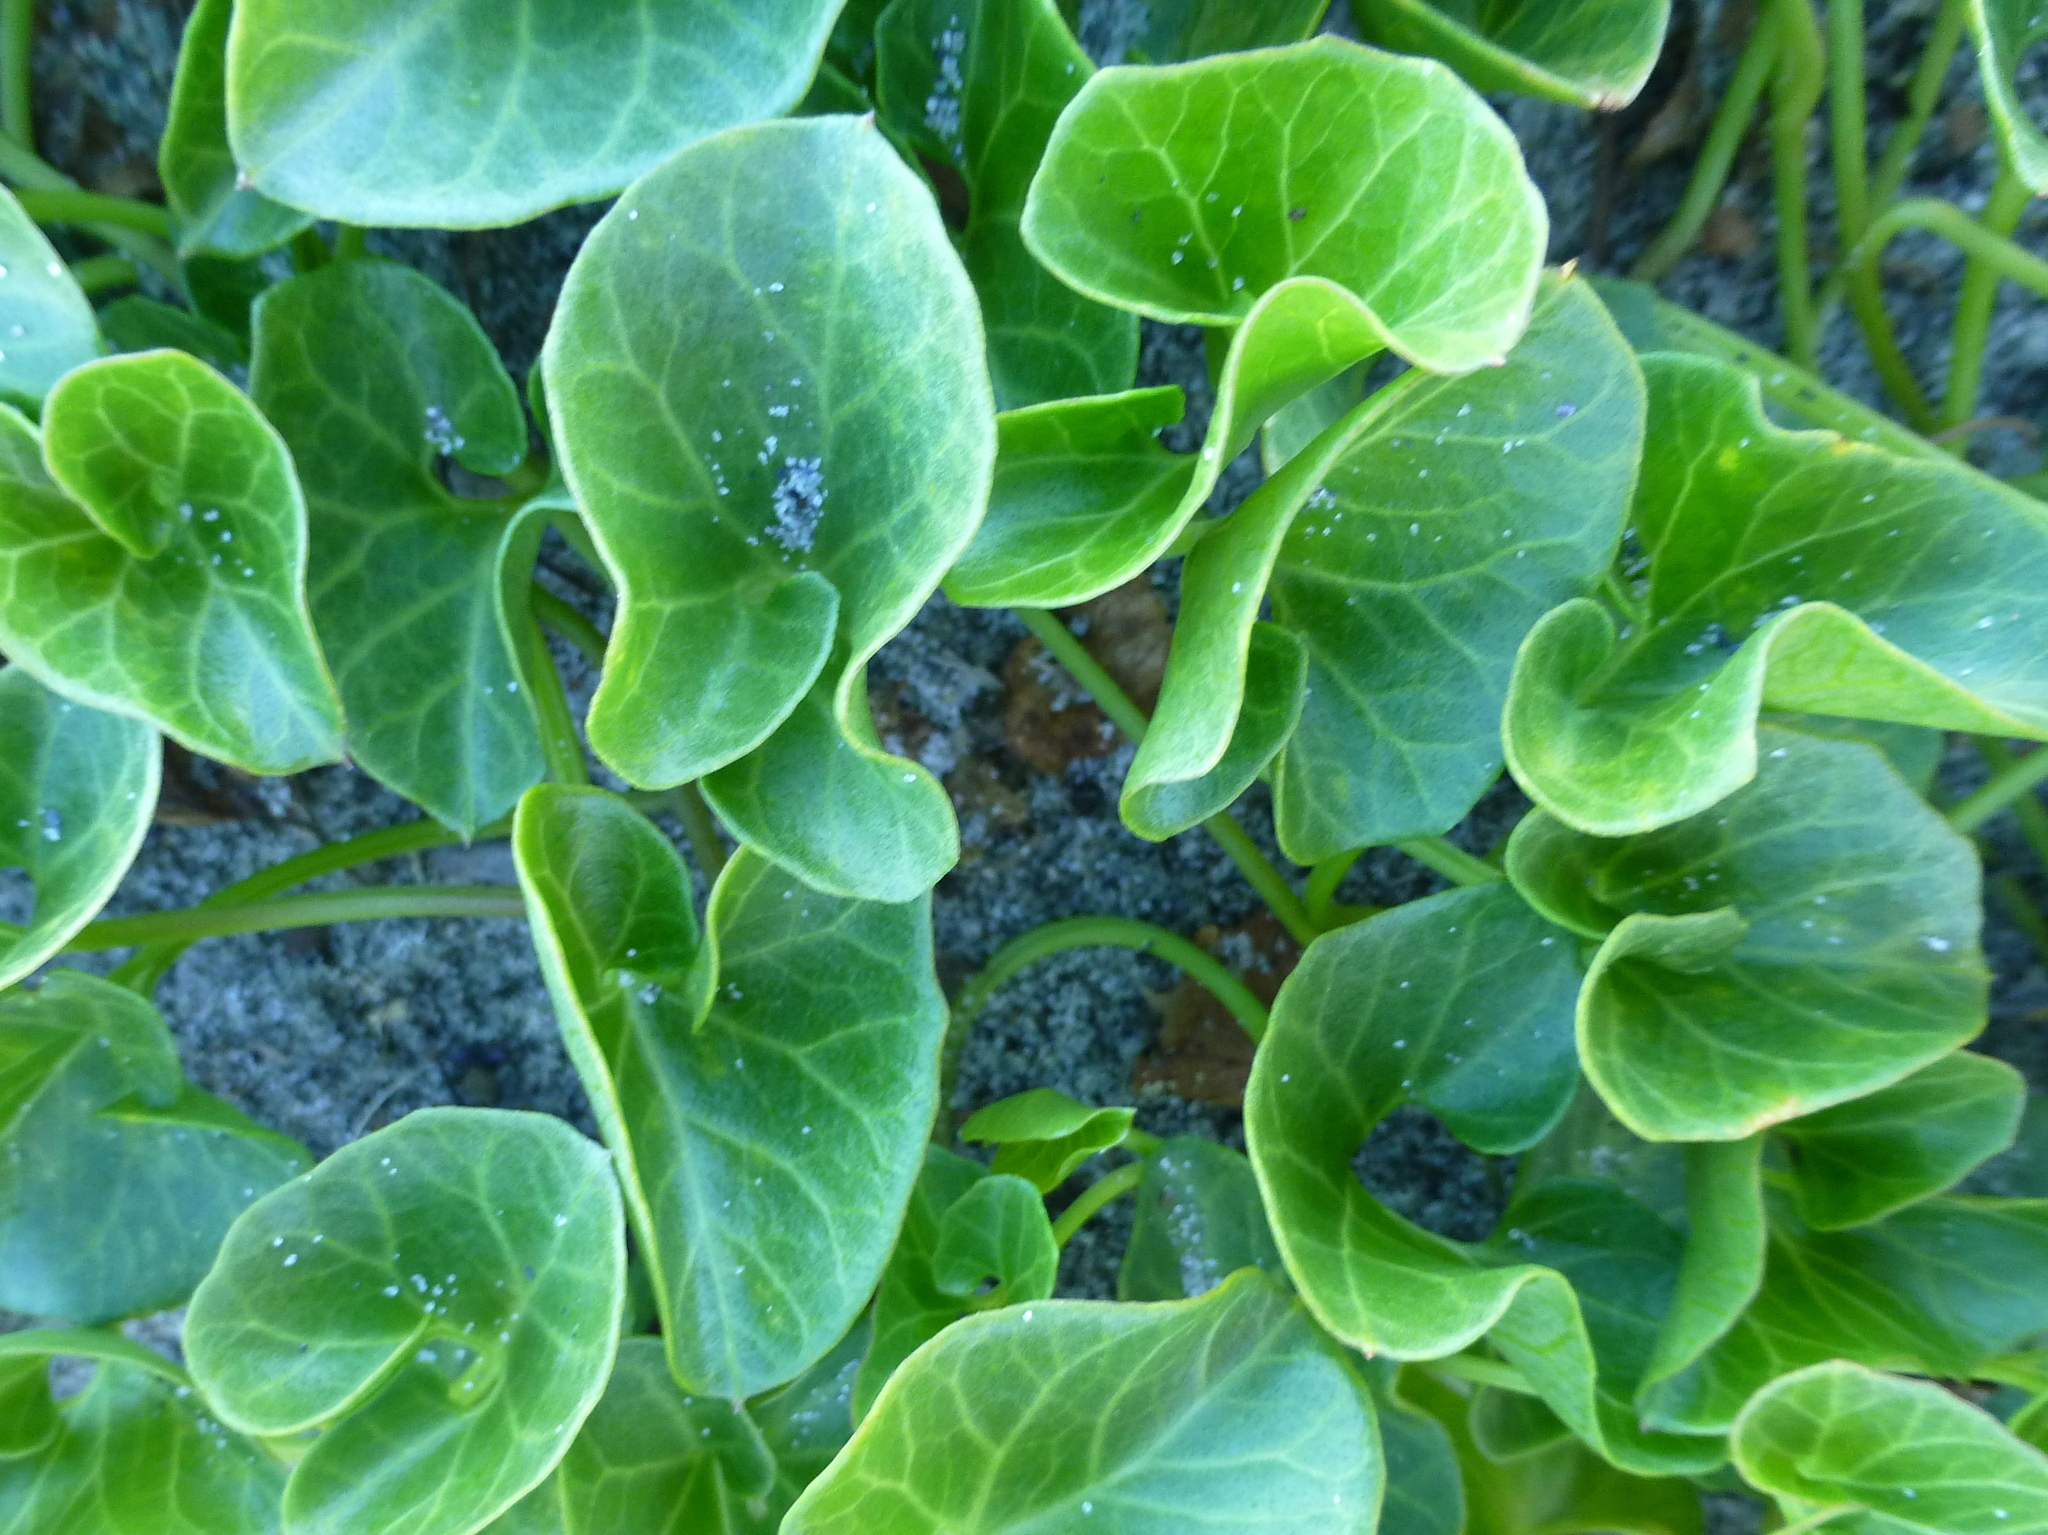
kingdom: Plantae
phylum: Tracheophyta
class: Magnoliopsida
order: Solanales
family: Convolvulaceae
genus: Calystegia
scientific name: Calystegia soldanella
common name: Sea bindweed
